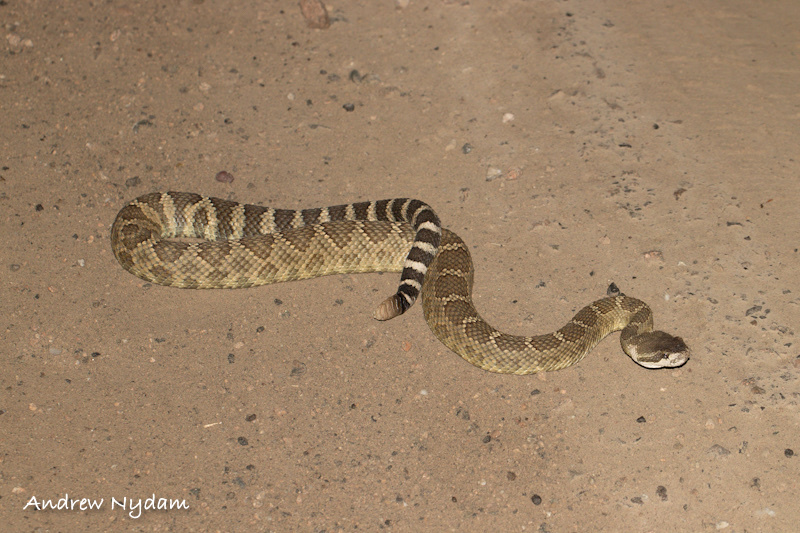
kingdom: Animalia
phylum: Chordata
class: Squamata
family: Viperidae
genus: Crotalus
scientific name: Crotalus oreganus
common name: Abyssus
